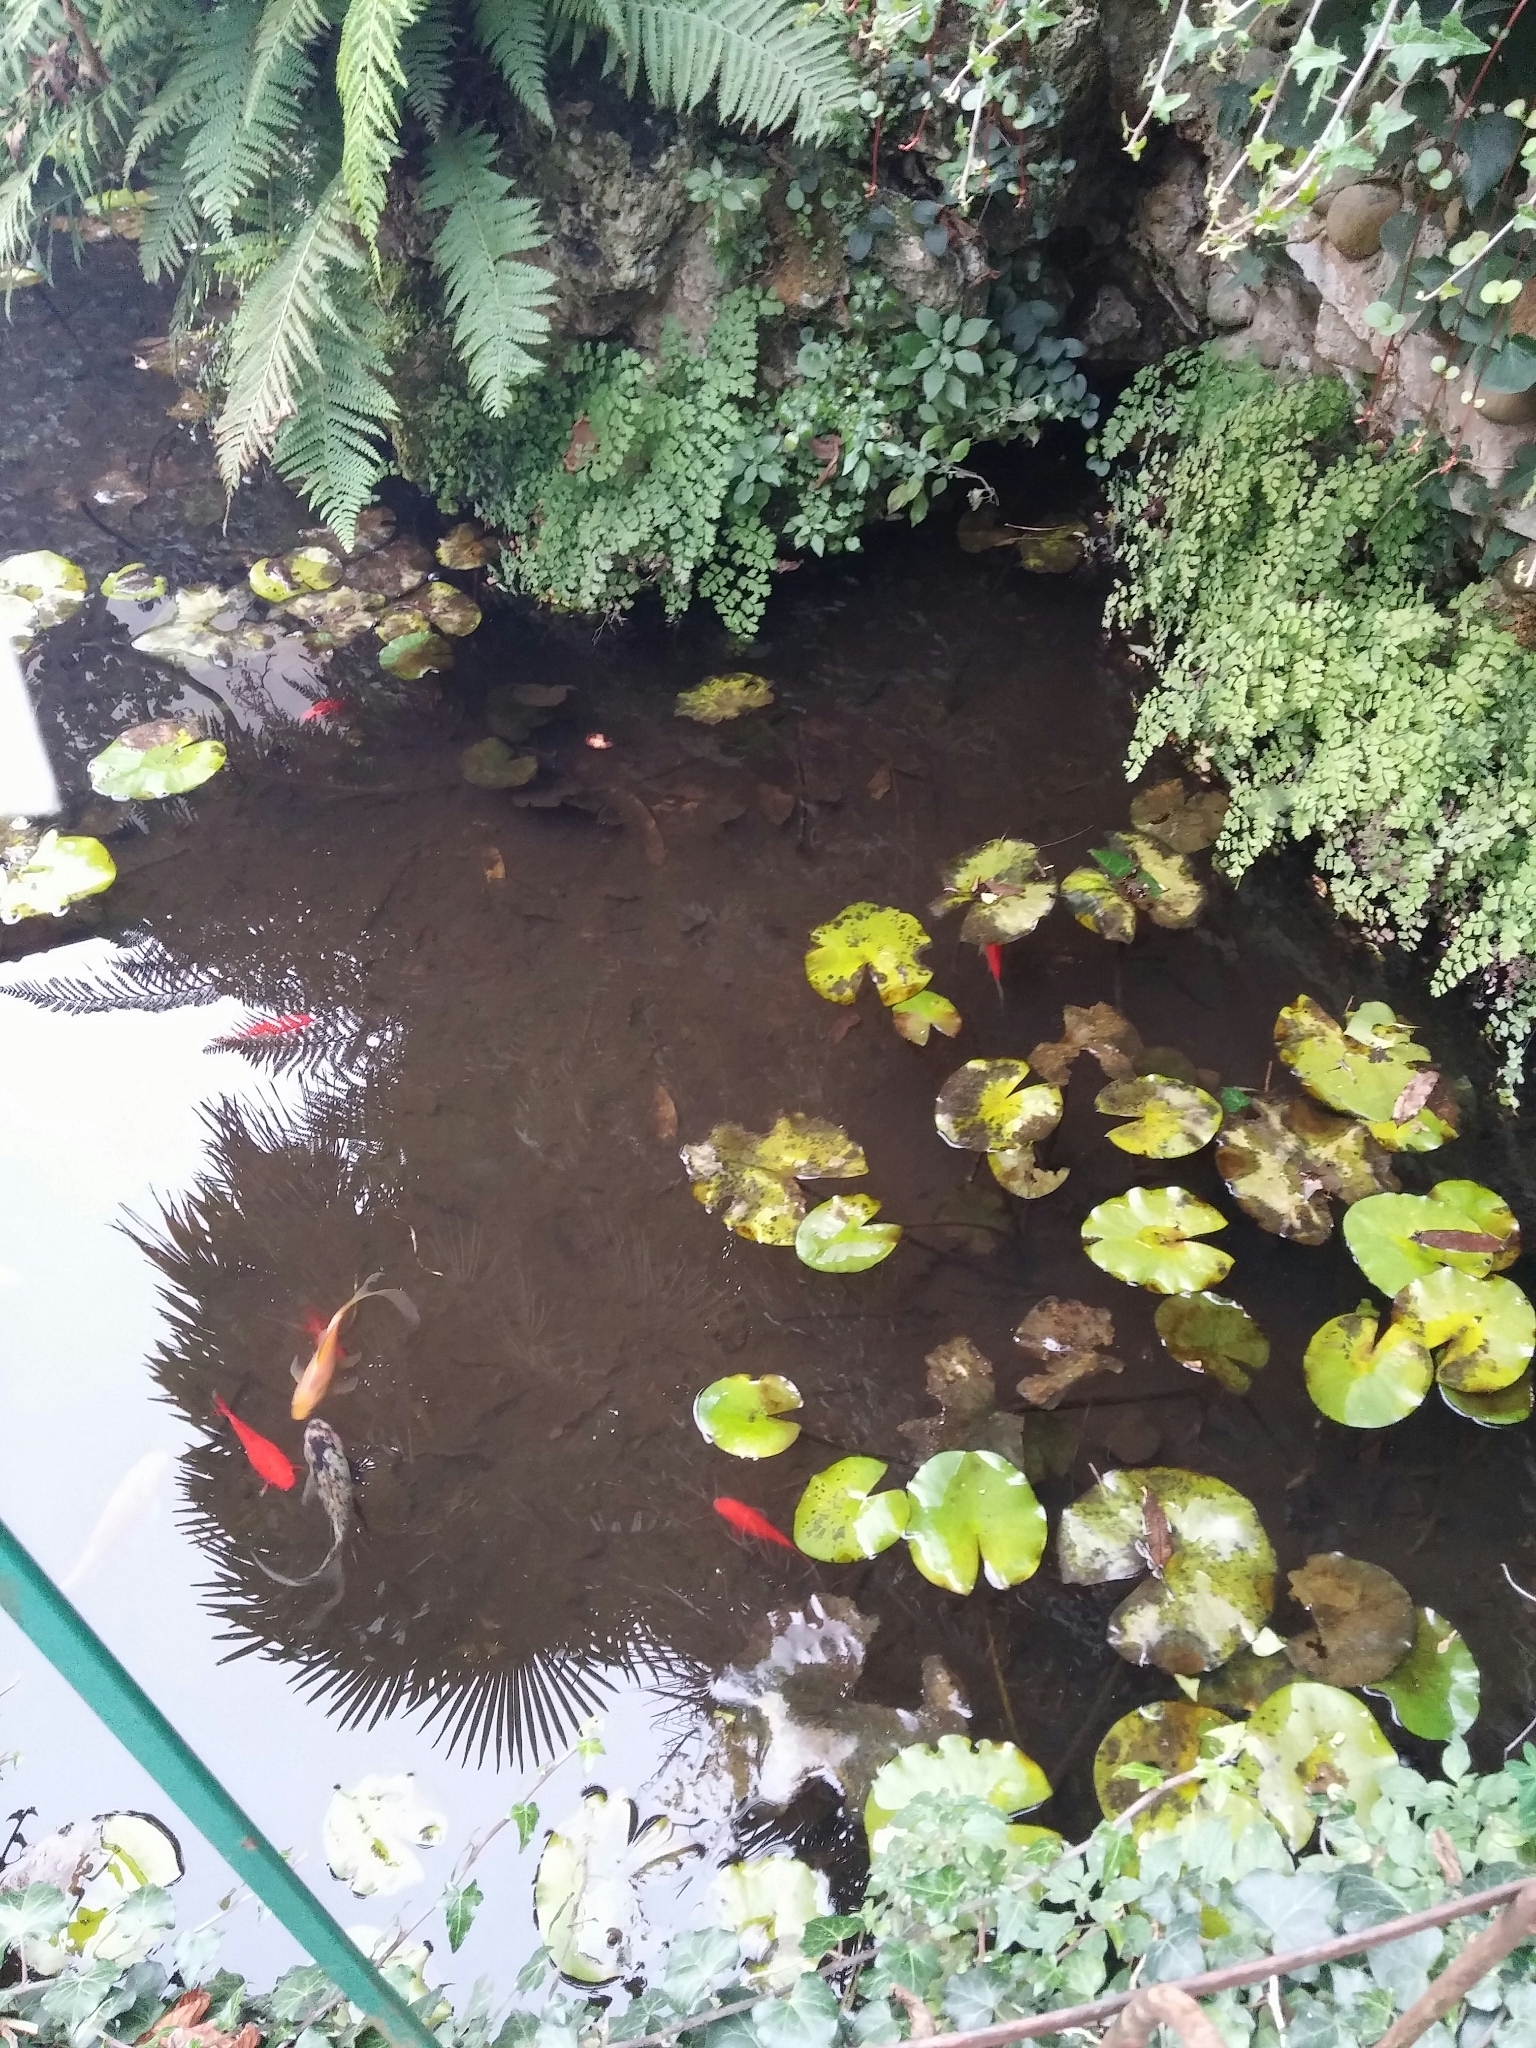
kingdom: Animalia
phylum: Chordata
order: Cypriniformes
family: Cyprinidae
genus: Carassius
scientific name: Carassius auratus
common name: Goldfish
